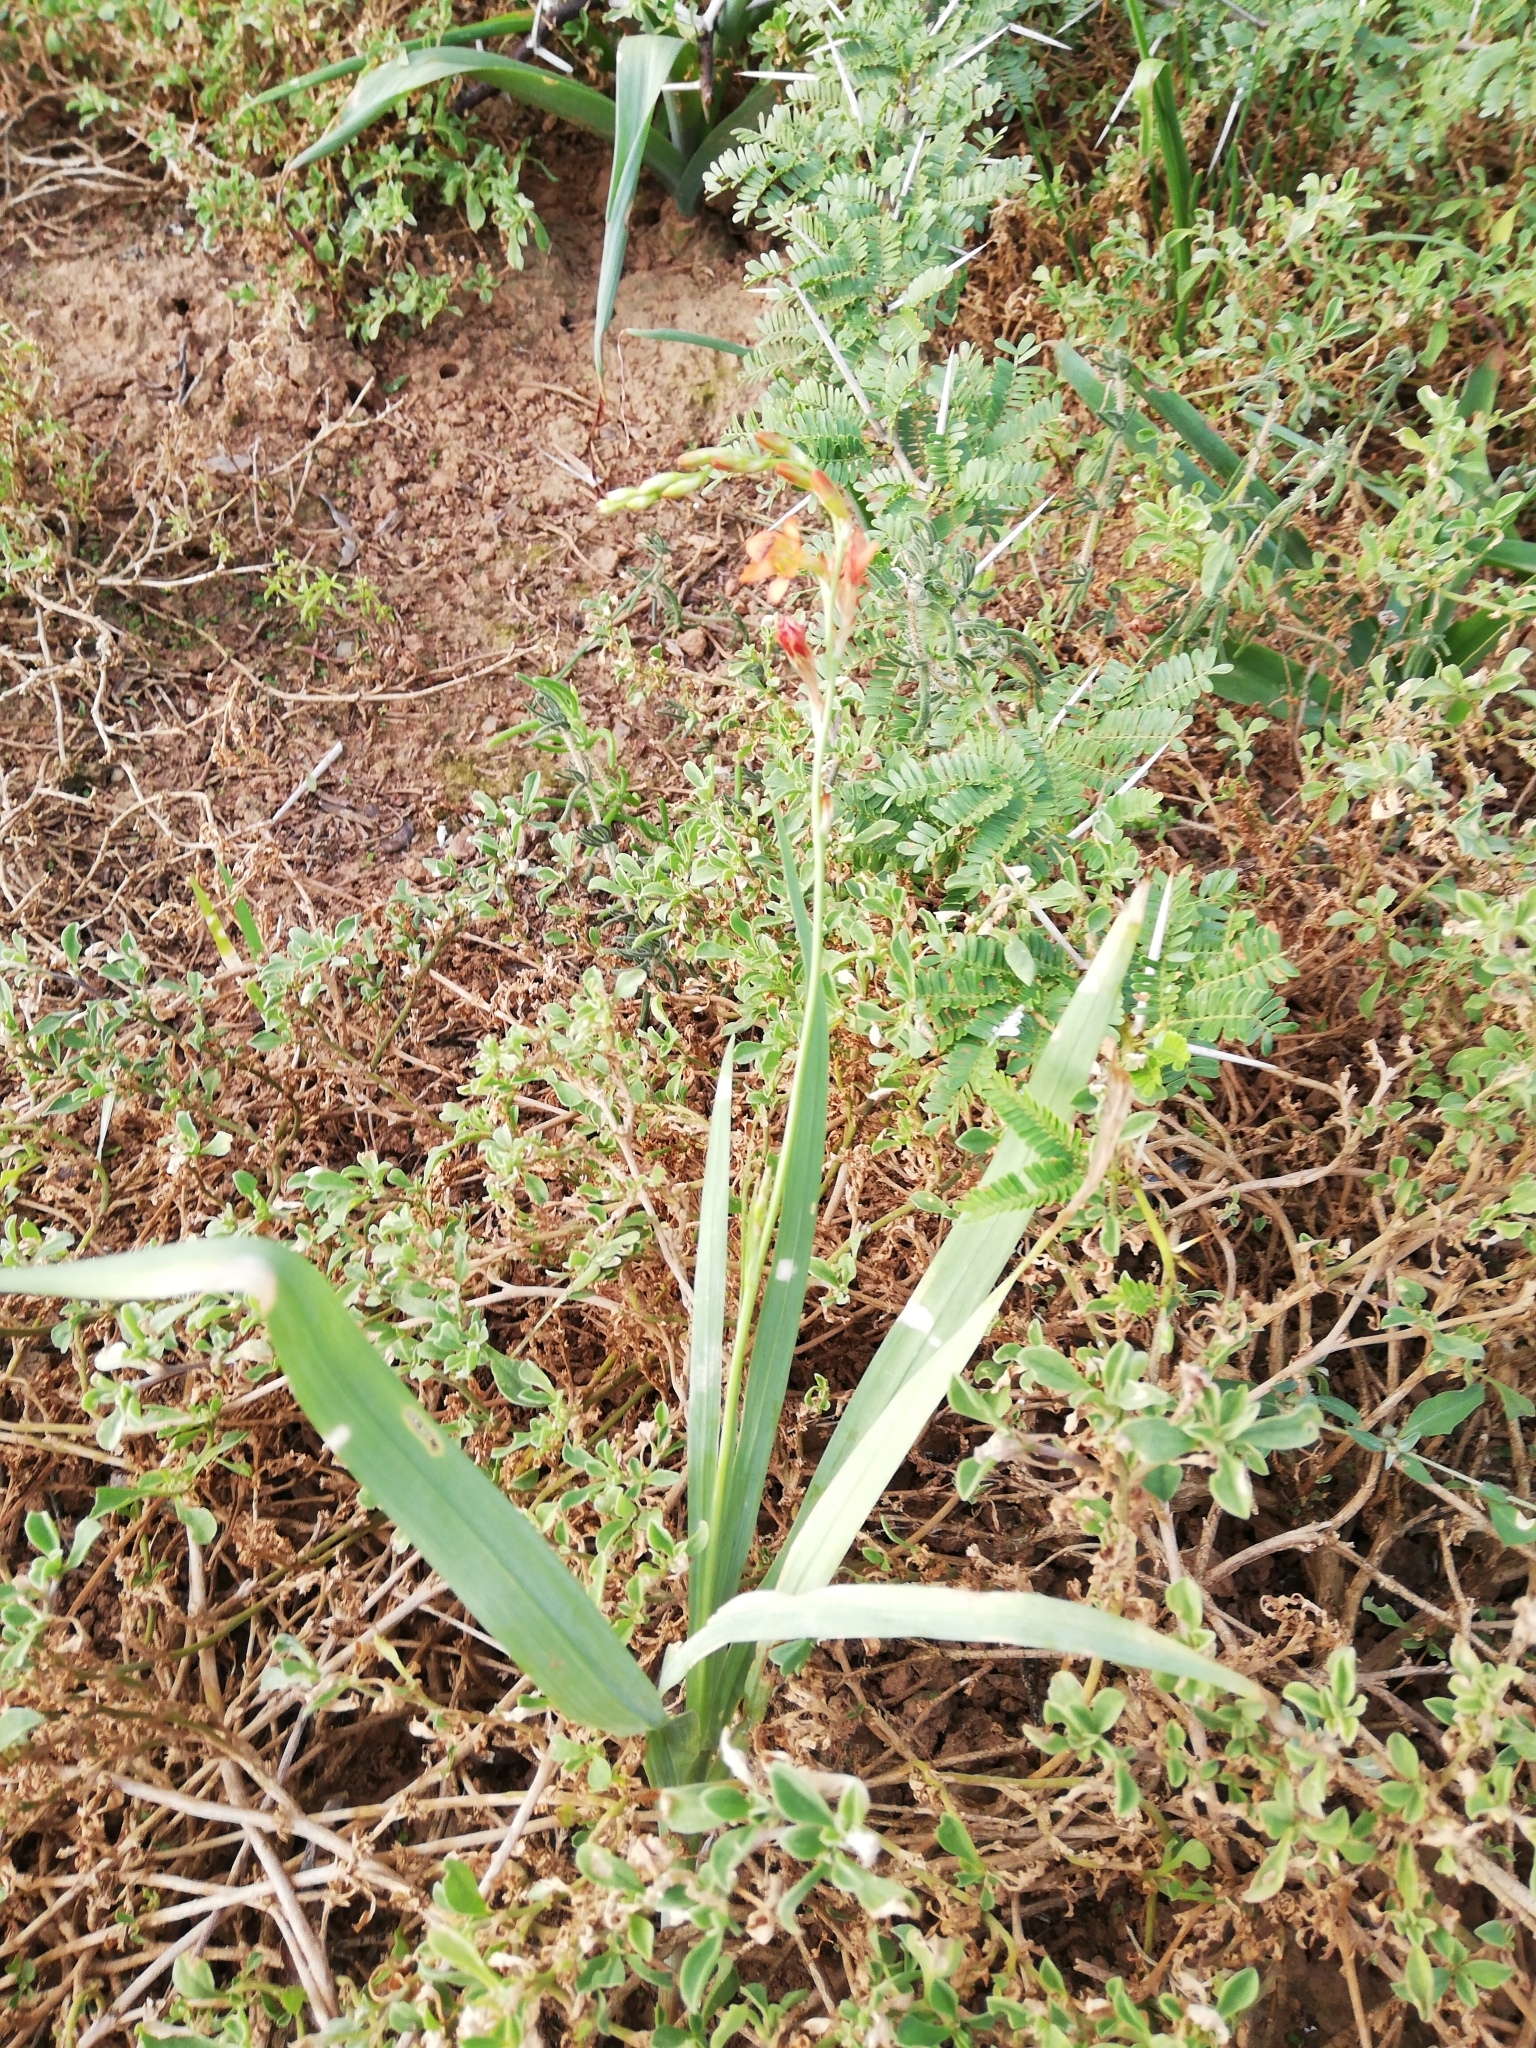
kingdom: Plantae
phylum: Tracheophyta
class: Liliopsida
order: Asparagales
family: Iridaceae
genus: Tritonia
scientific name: Tritonia laxifolia
